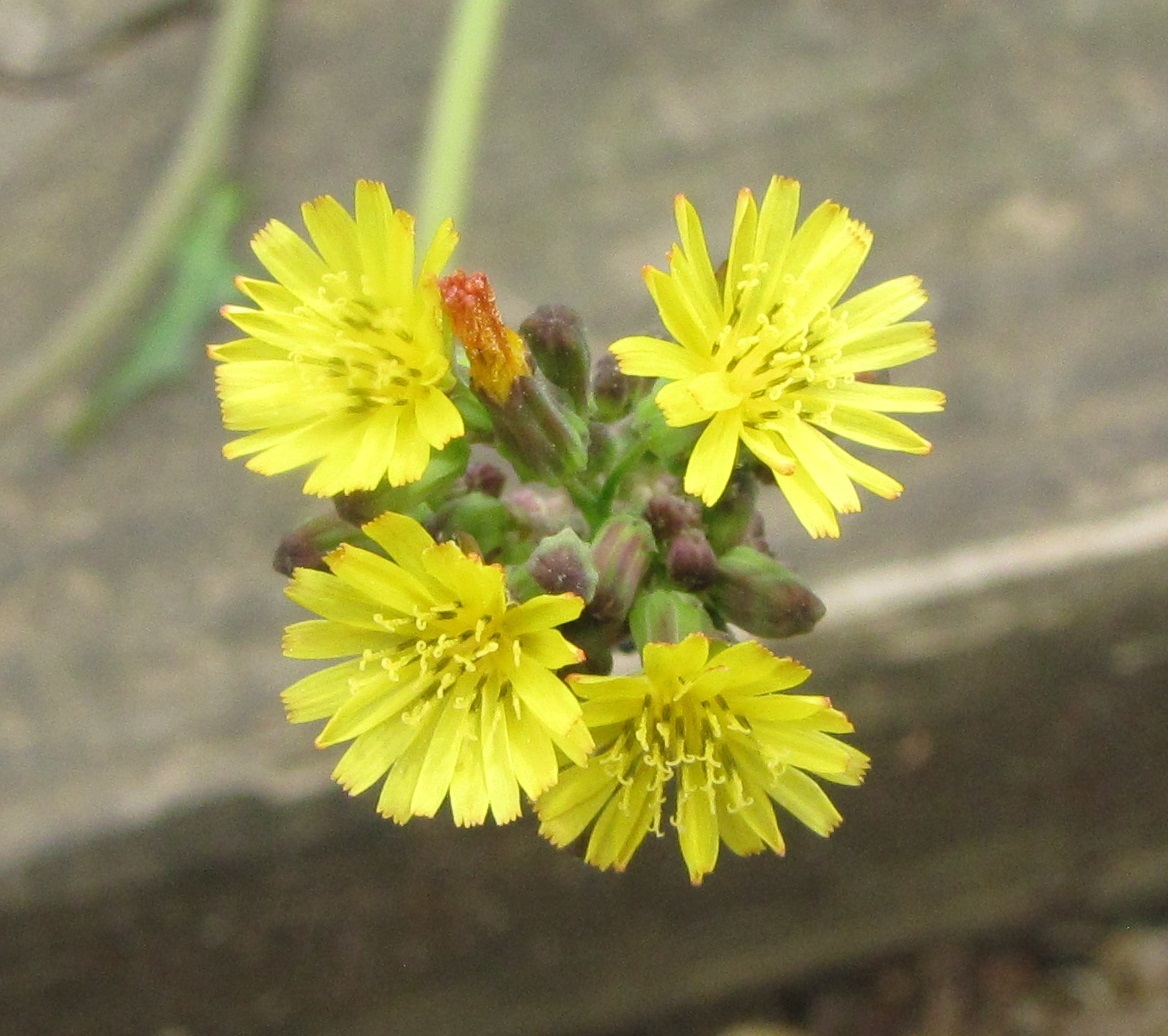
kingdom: Plantae
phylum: Tracheophyta
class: Magnoliopsida
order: Asterales
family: Asteraceae
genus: Youngia
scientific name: Youngia japonica
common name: Oriental false hawksbeard
